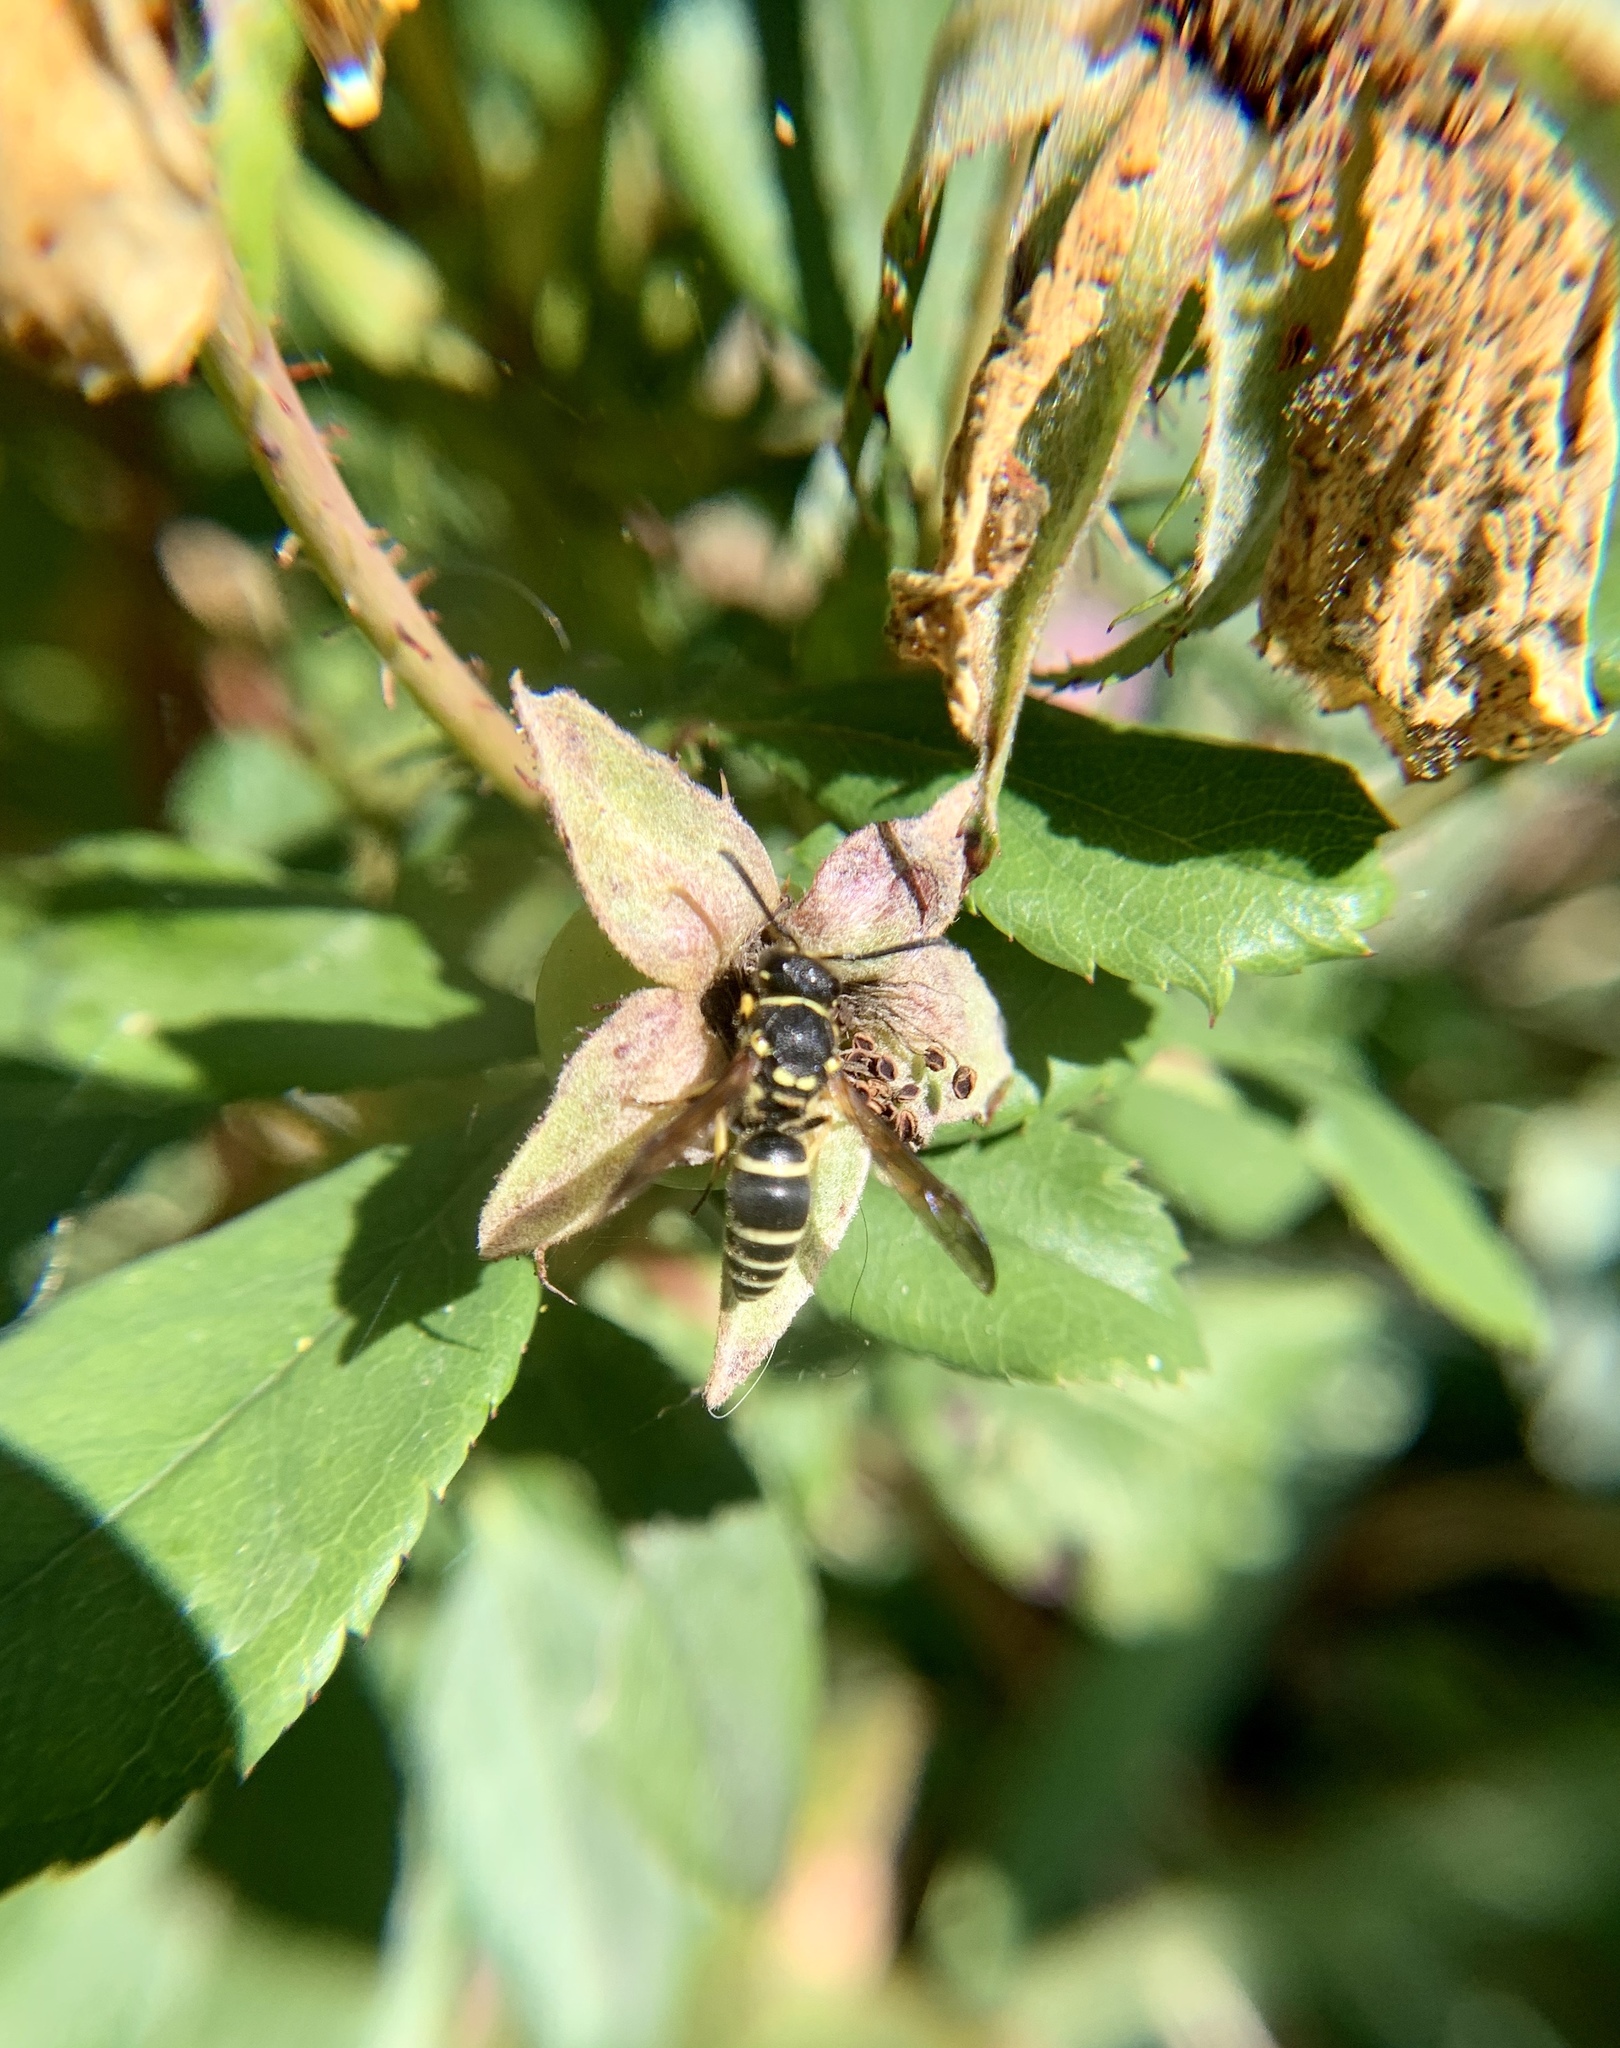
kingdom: Animalia
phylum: Arthropoda
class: Insecta
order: Hymenoptera
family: Vespidae
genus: Ancistrocerus
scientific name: Ancistrocerus catskill
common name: Vespid wasp
